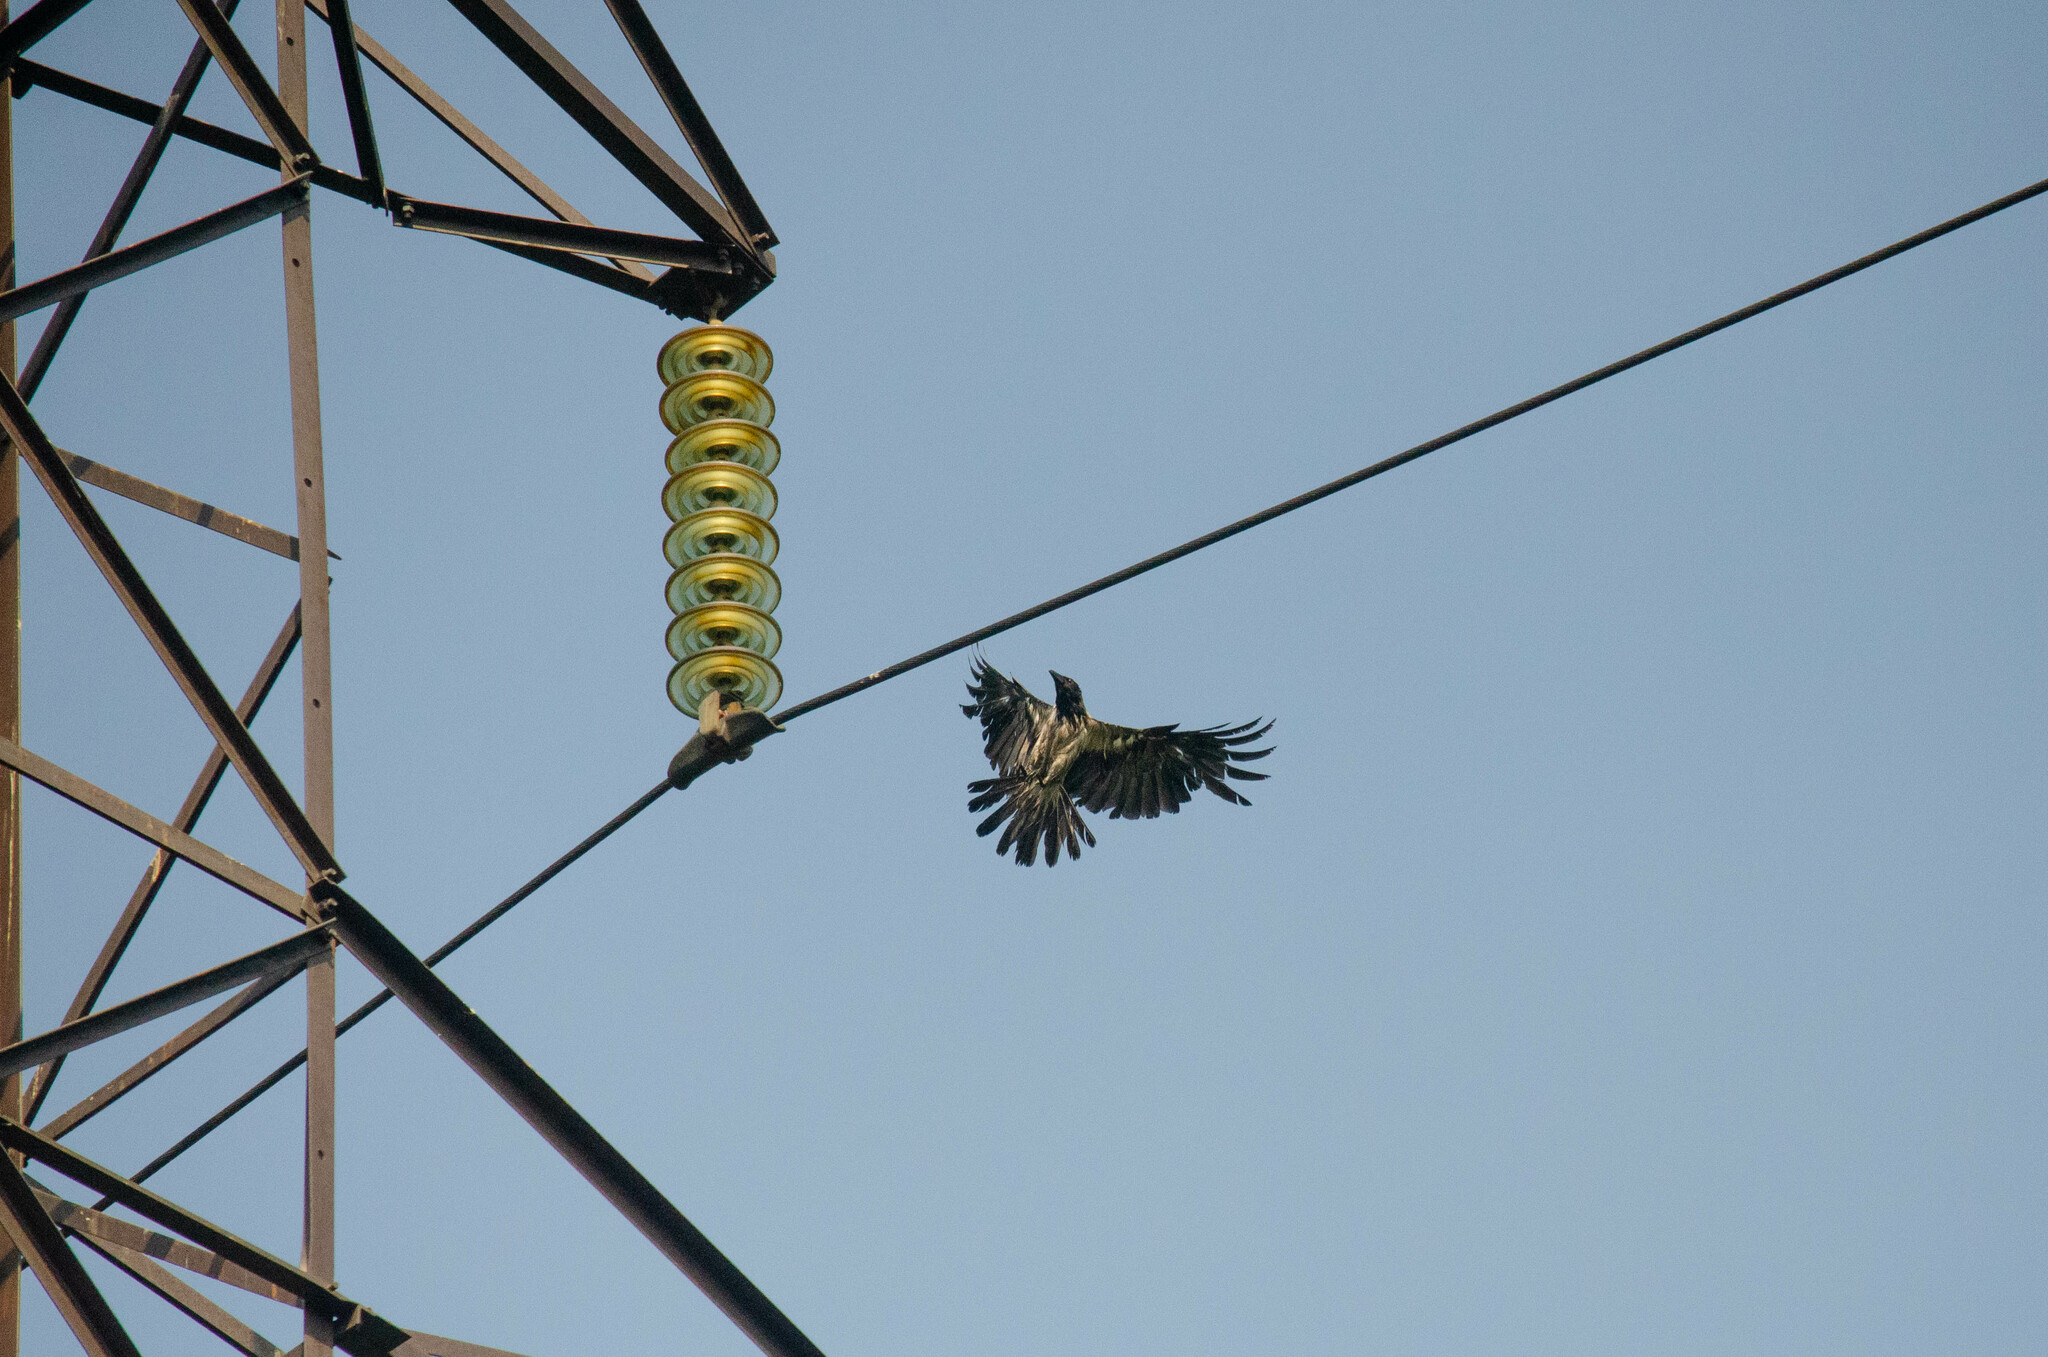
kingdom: Animalia
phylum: Chordata
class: Aves
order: Passeriformes
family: Corvidae
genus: Corvus
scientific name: Corvus cornix
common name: Hooded crow
